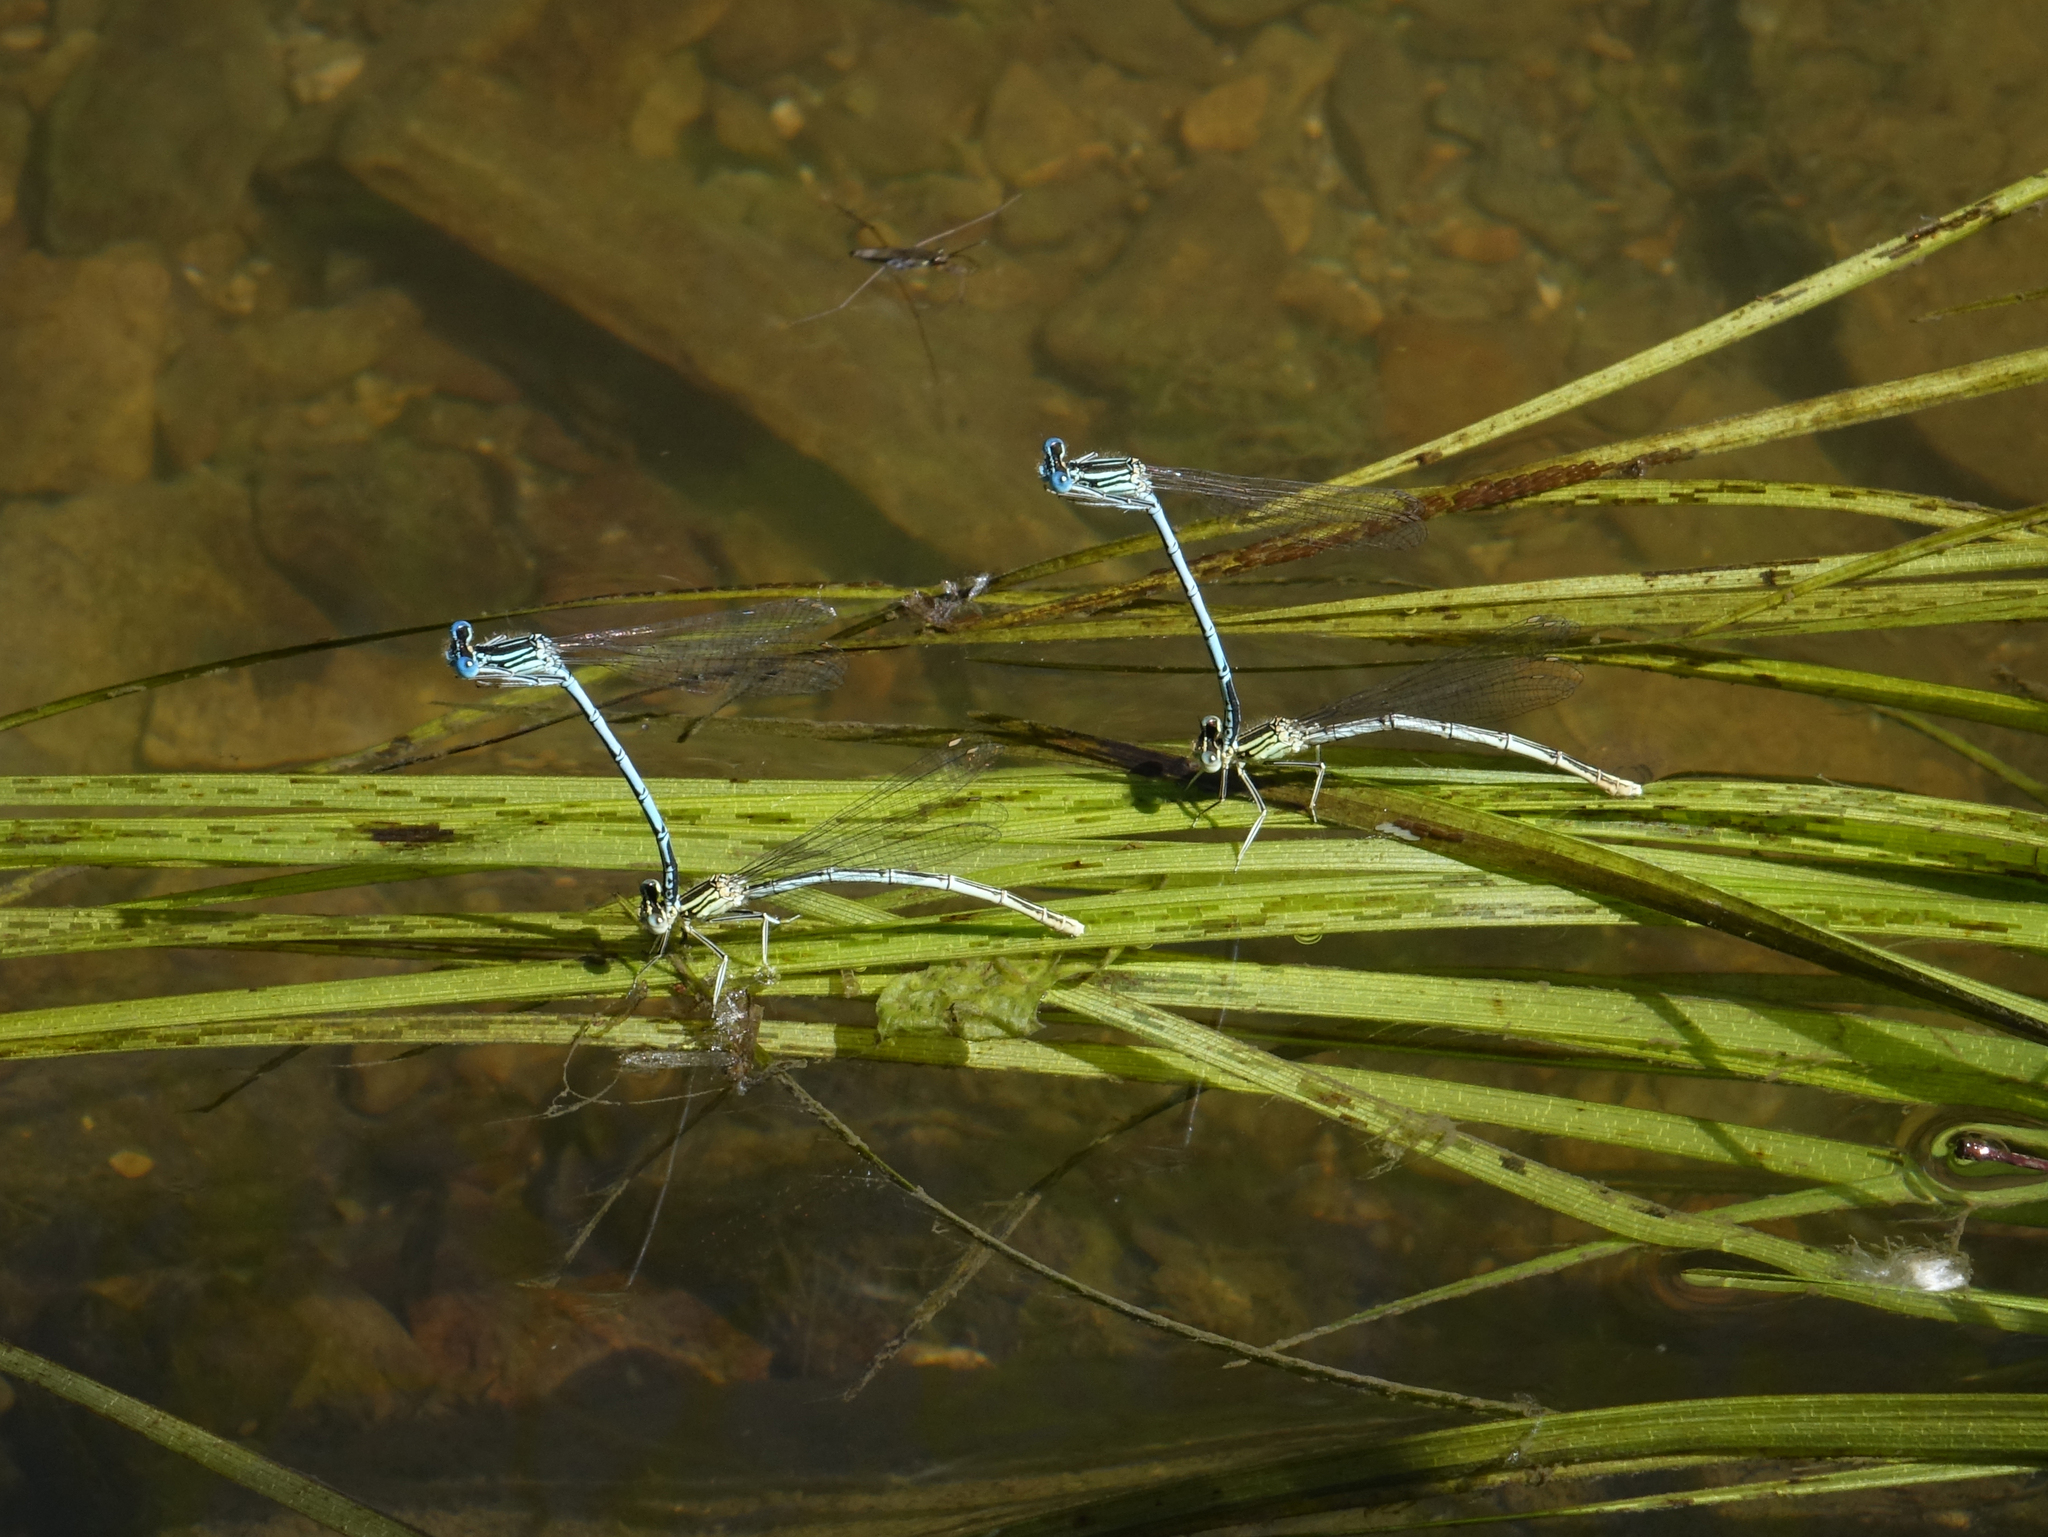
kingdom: Animalia
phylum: Arthropoda
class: Insecta
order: Odonata
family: Platycnemididae
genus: Platycnemis
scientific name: Platycnemis pennipes
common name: White-legged damselfly
